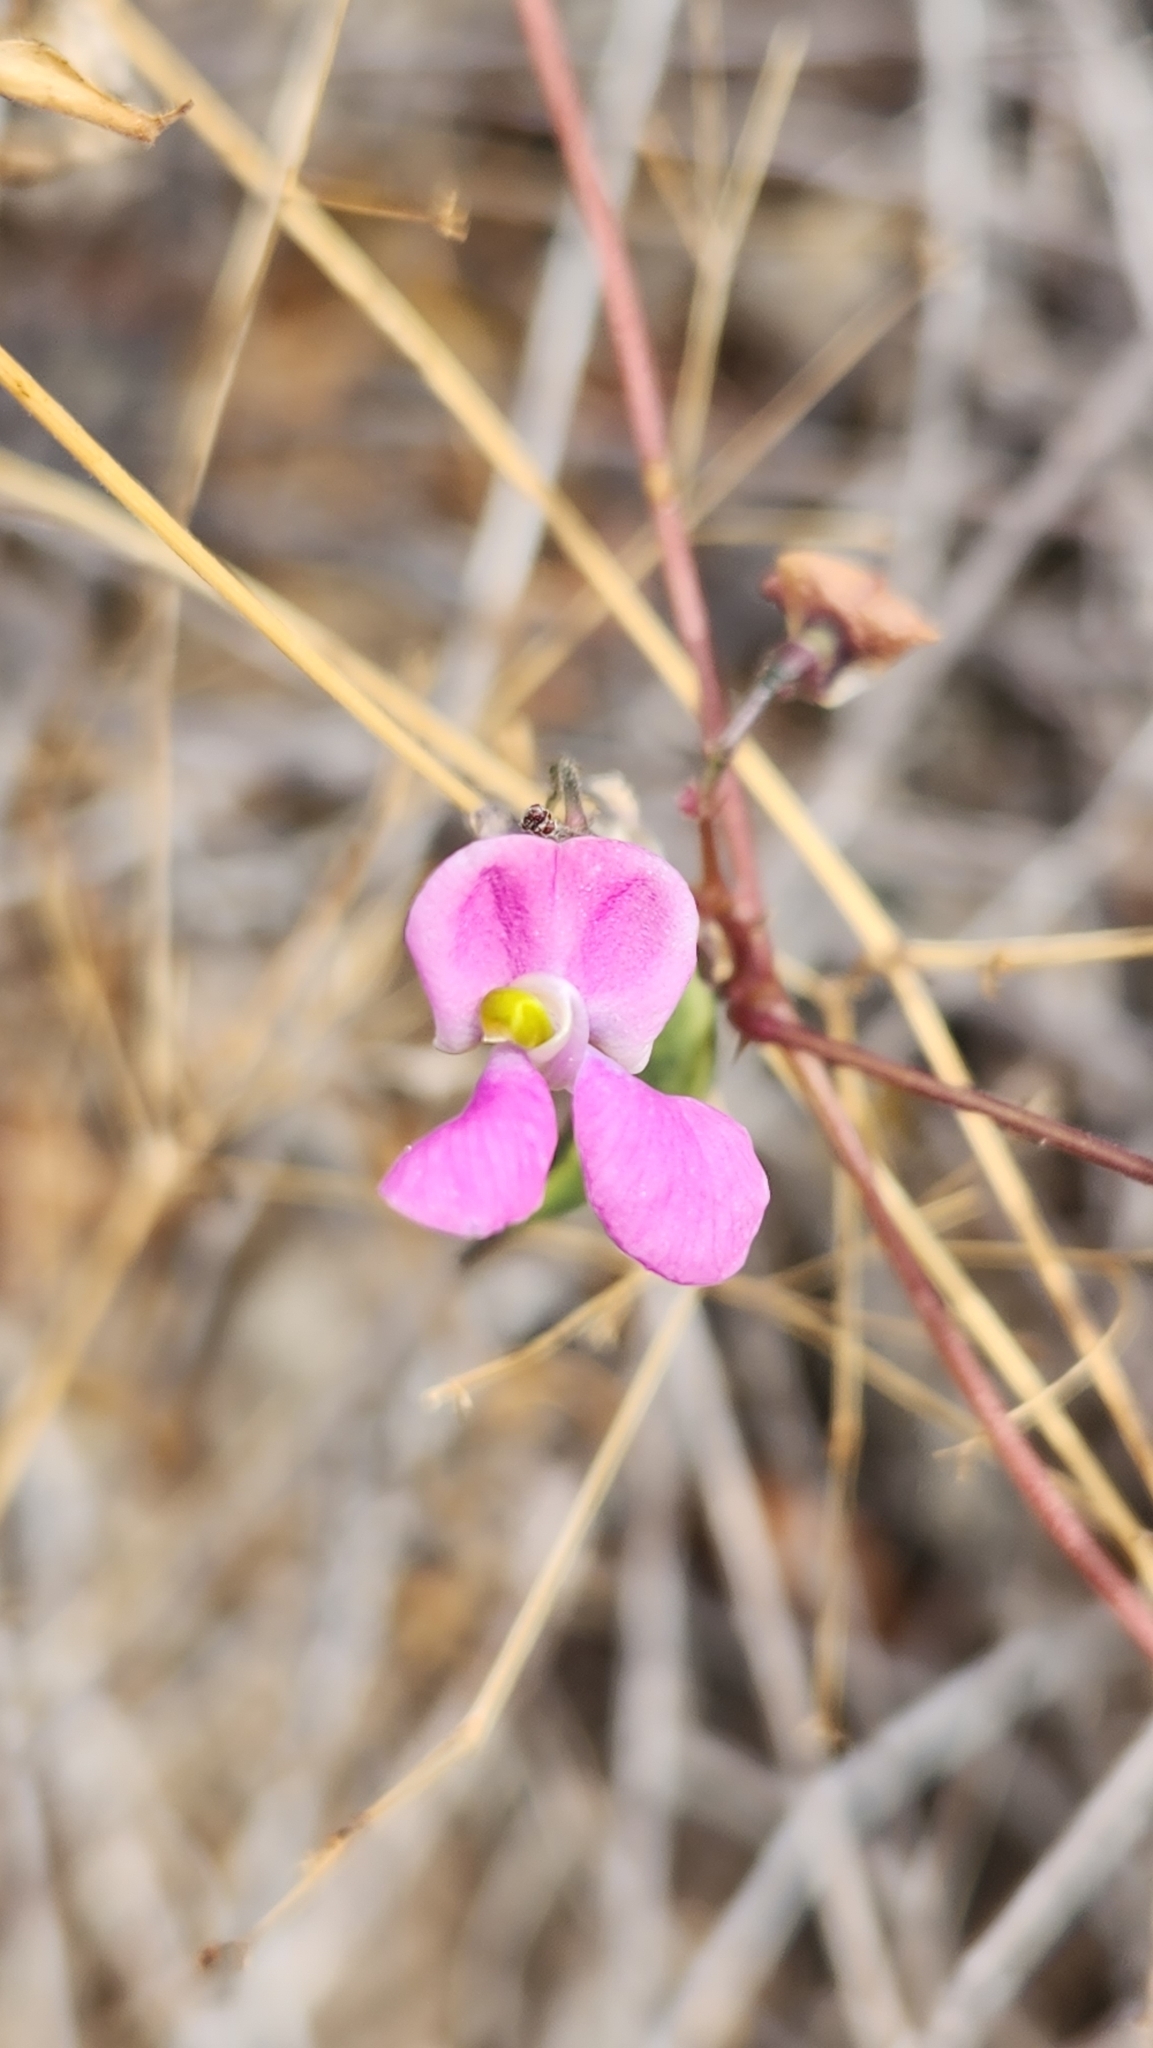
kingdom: Plantae
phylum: Tracheophyta
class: Magnoliopsida
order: Fabales
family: Fabaceae
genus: Phaseolus
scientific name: Phaseolus filiformis
